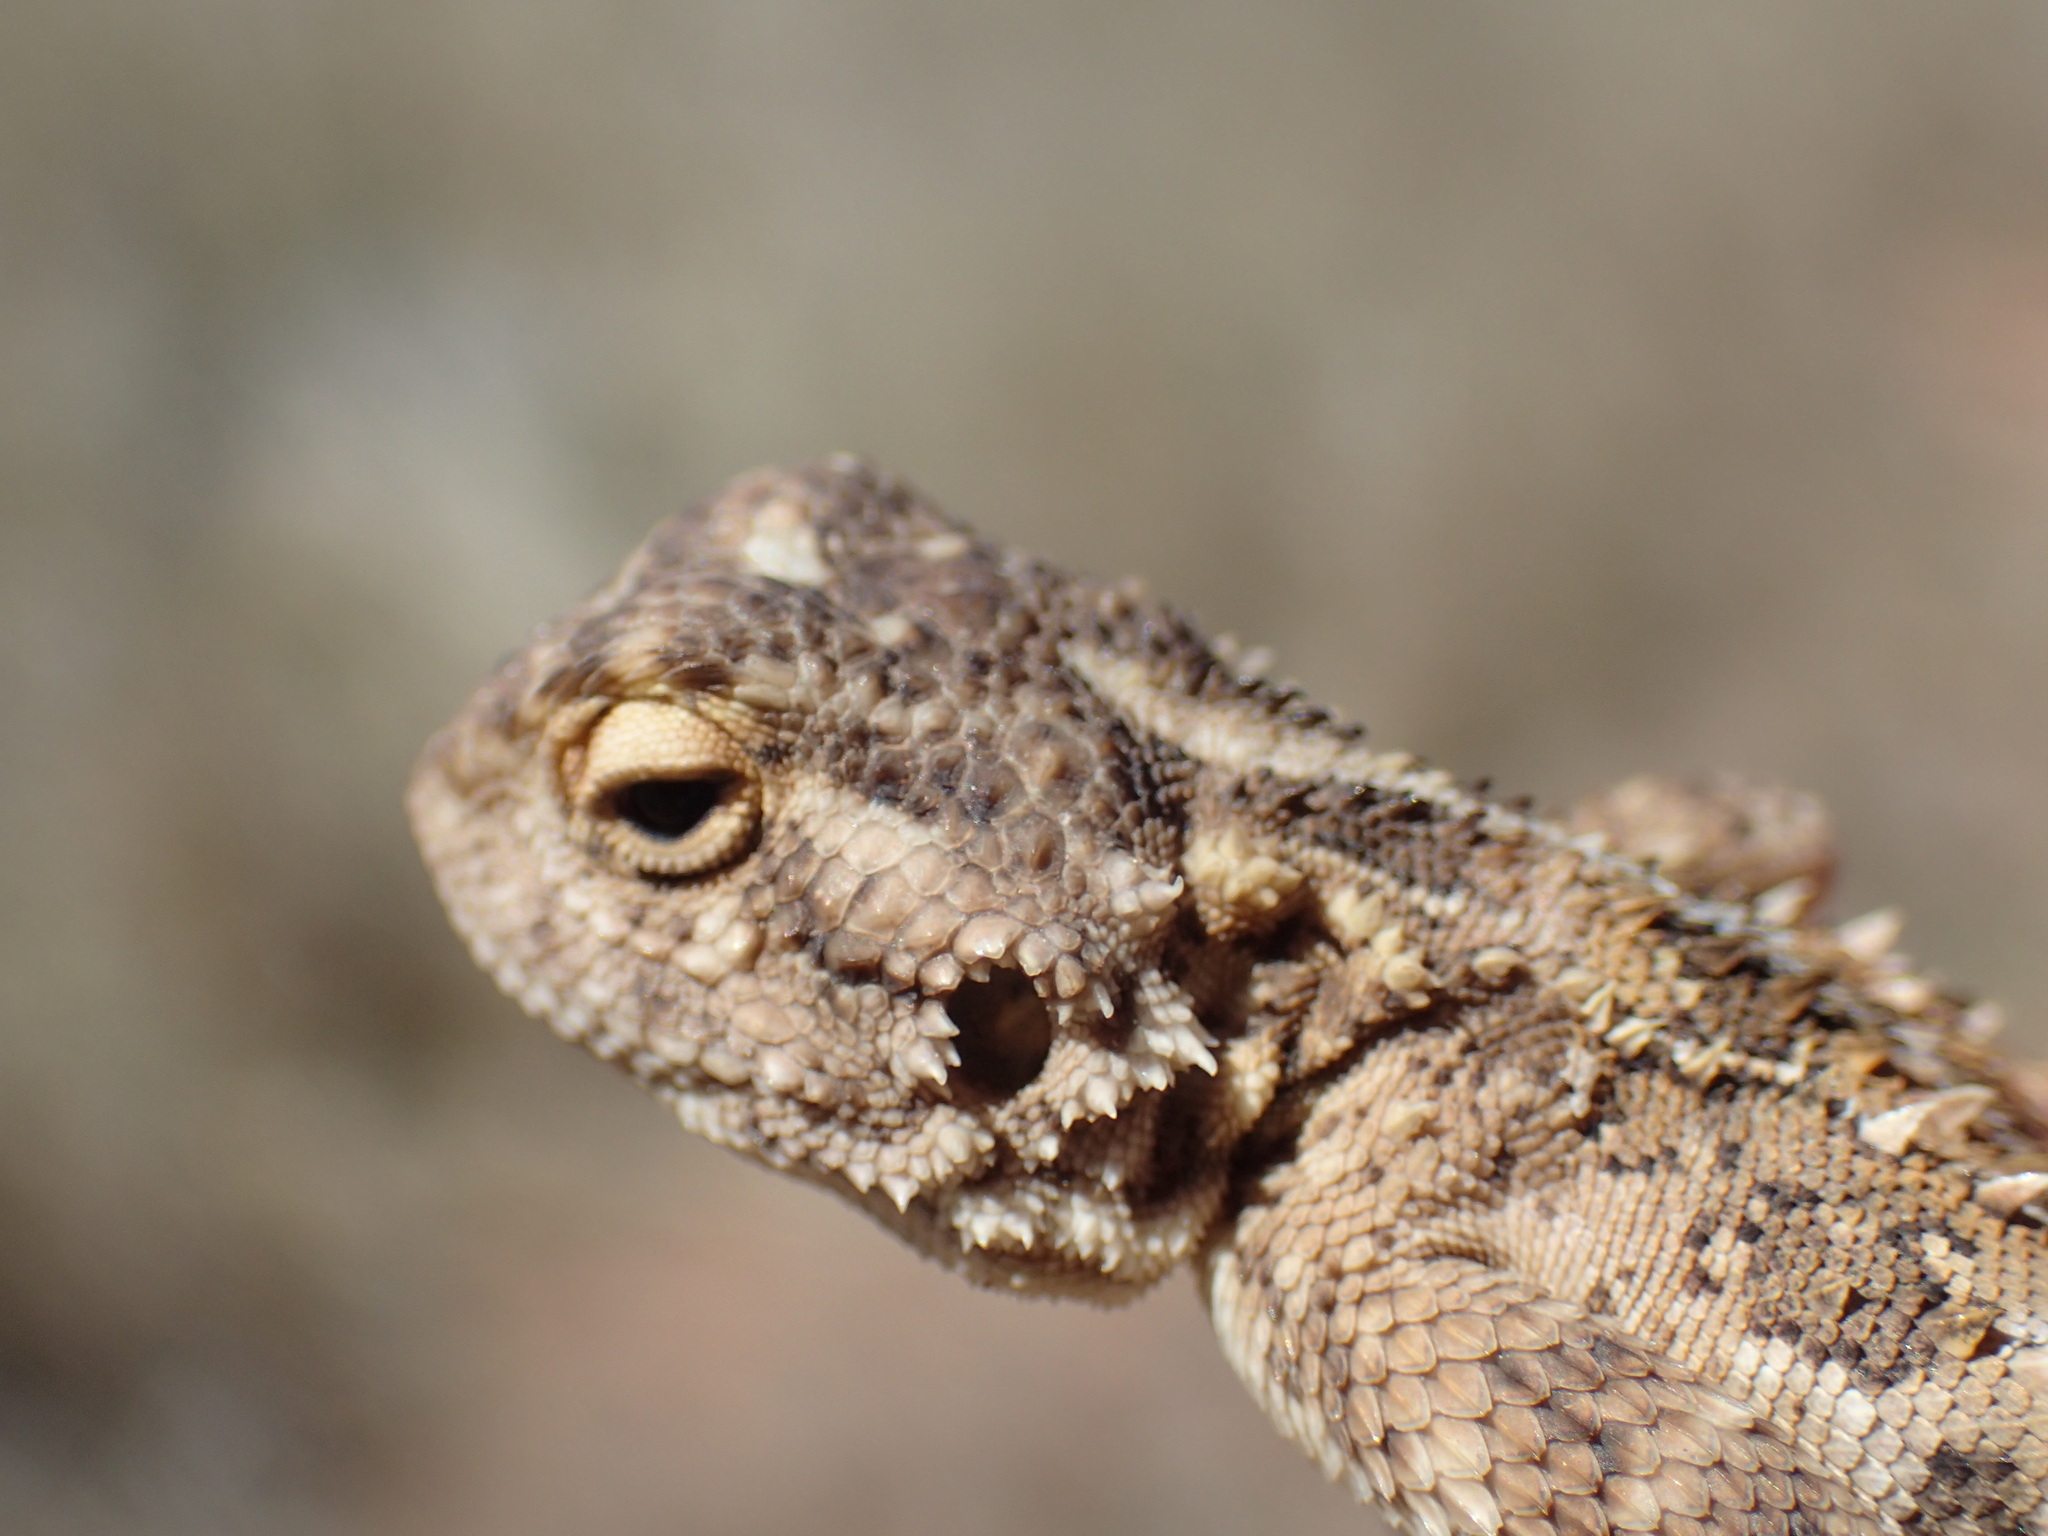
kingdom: Animalia
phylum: Chordata
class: Squamata
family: Agamidae
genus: Agama
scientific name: Agama aculeata
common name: Common ground agama
